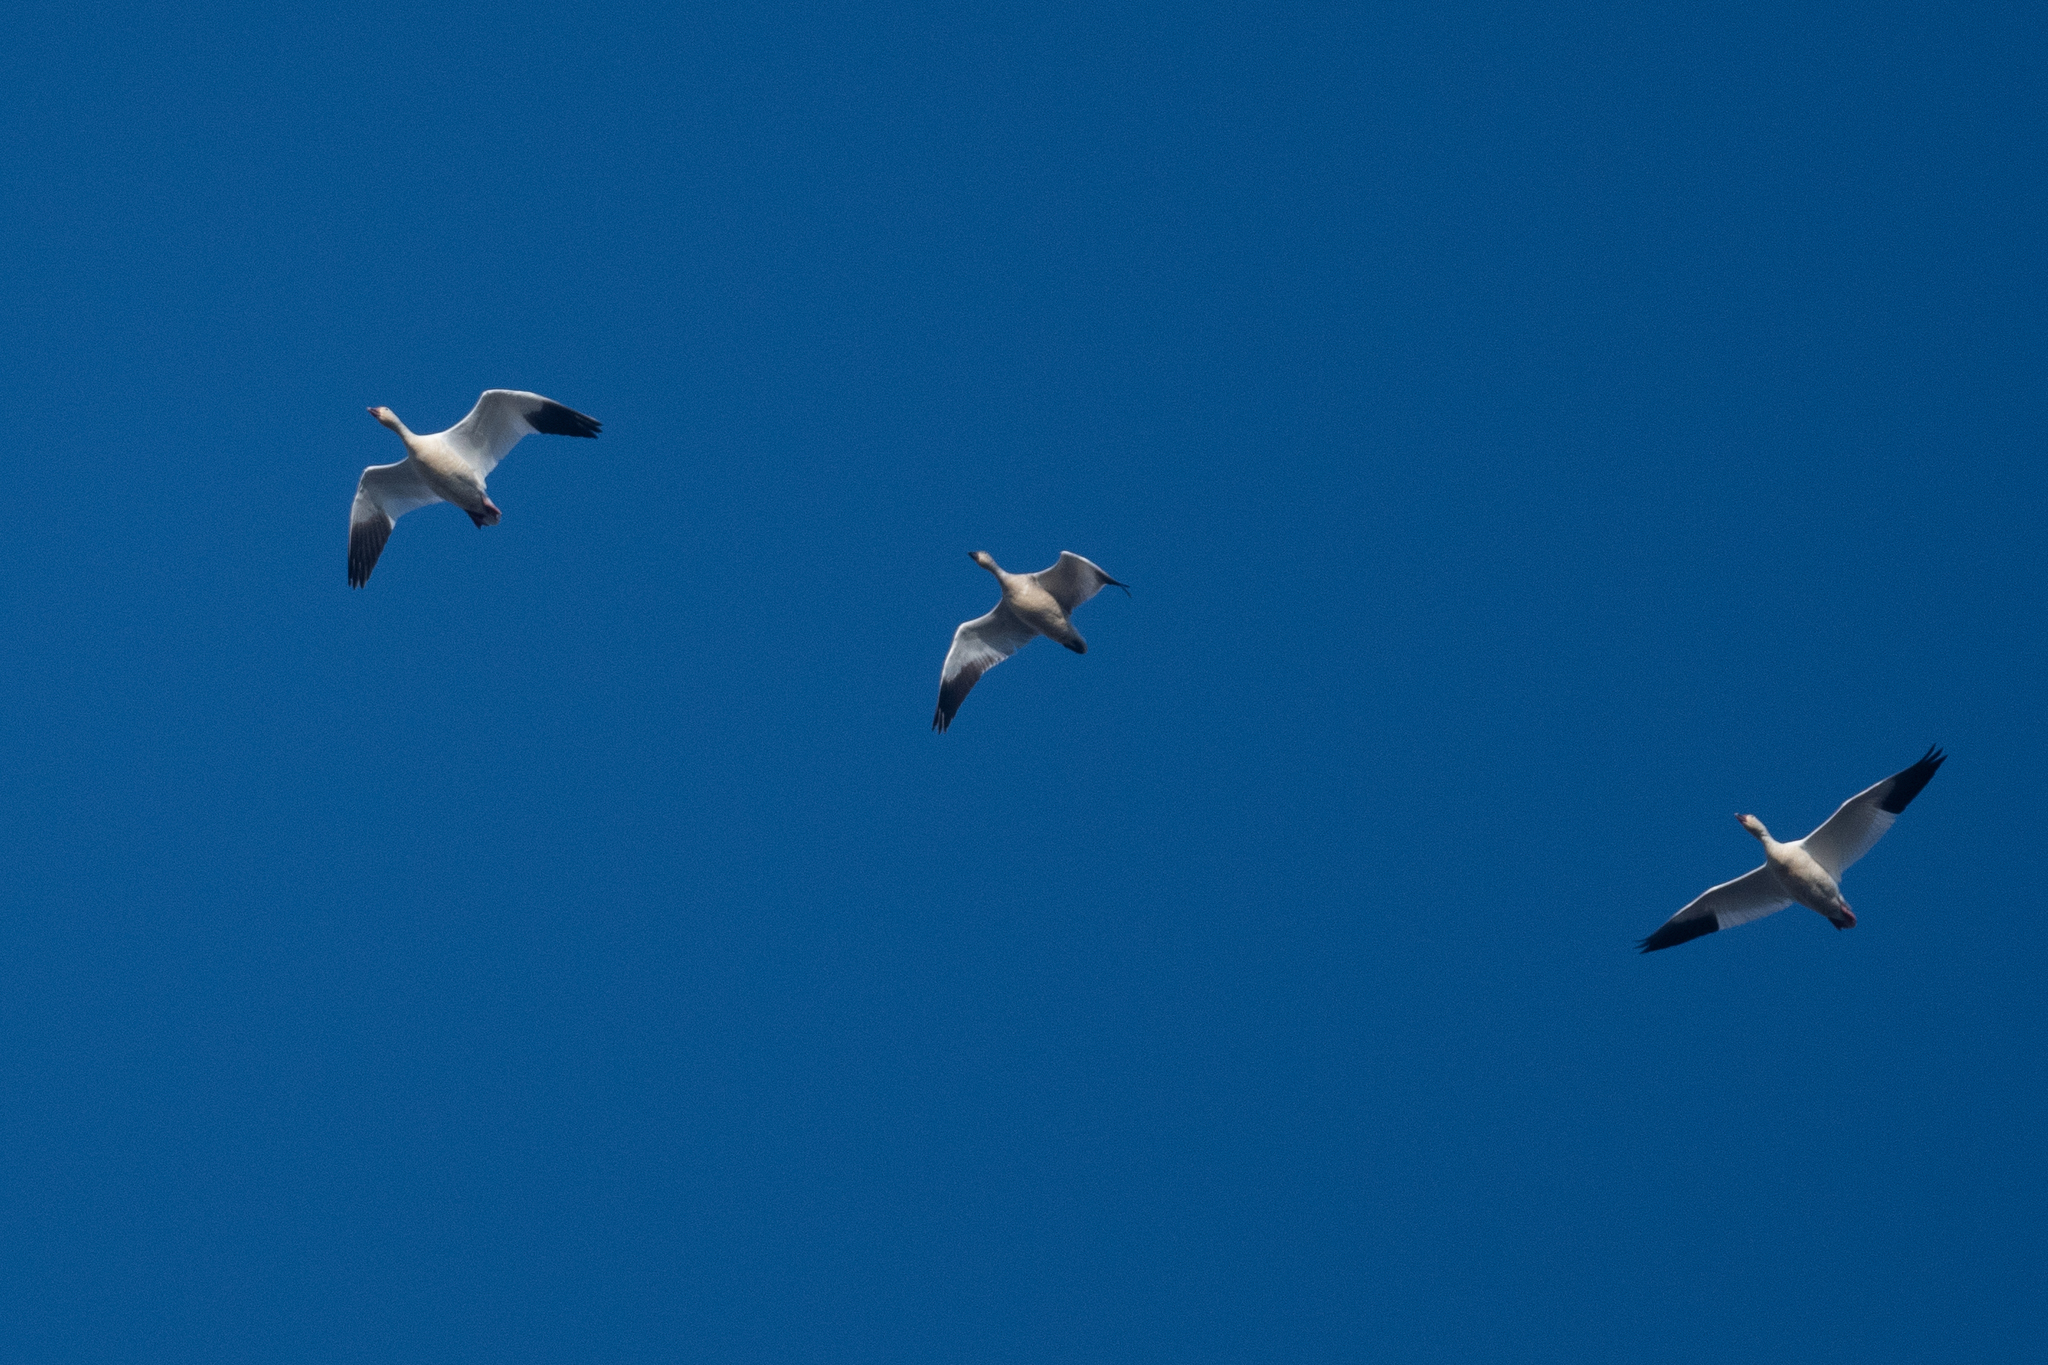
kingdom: Animalia
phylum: Chordata
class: Aves
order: Anseriformes
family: Anatidae
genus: Anser
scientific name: Anser caerulescens
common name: Snow goose
